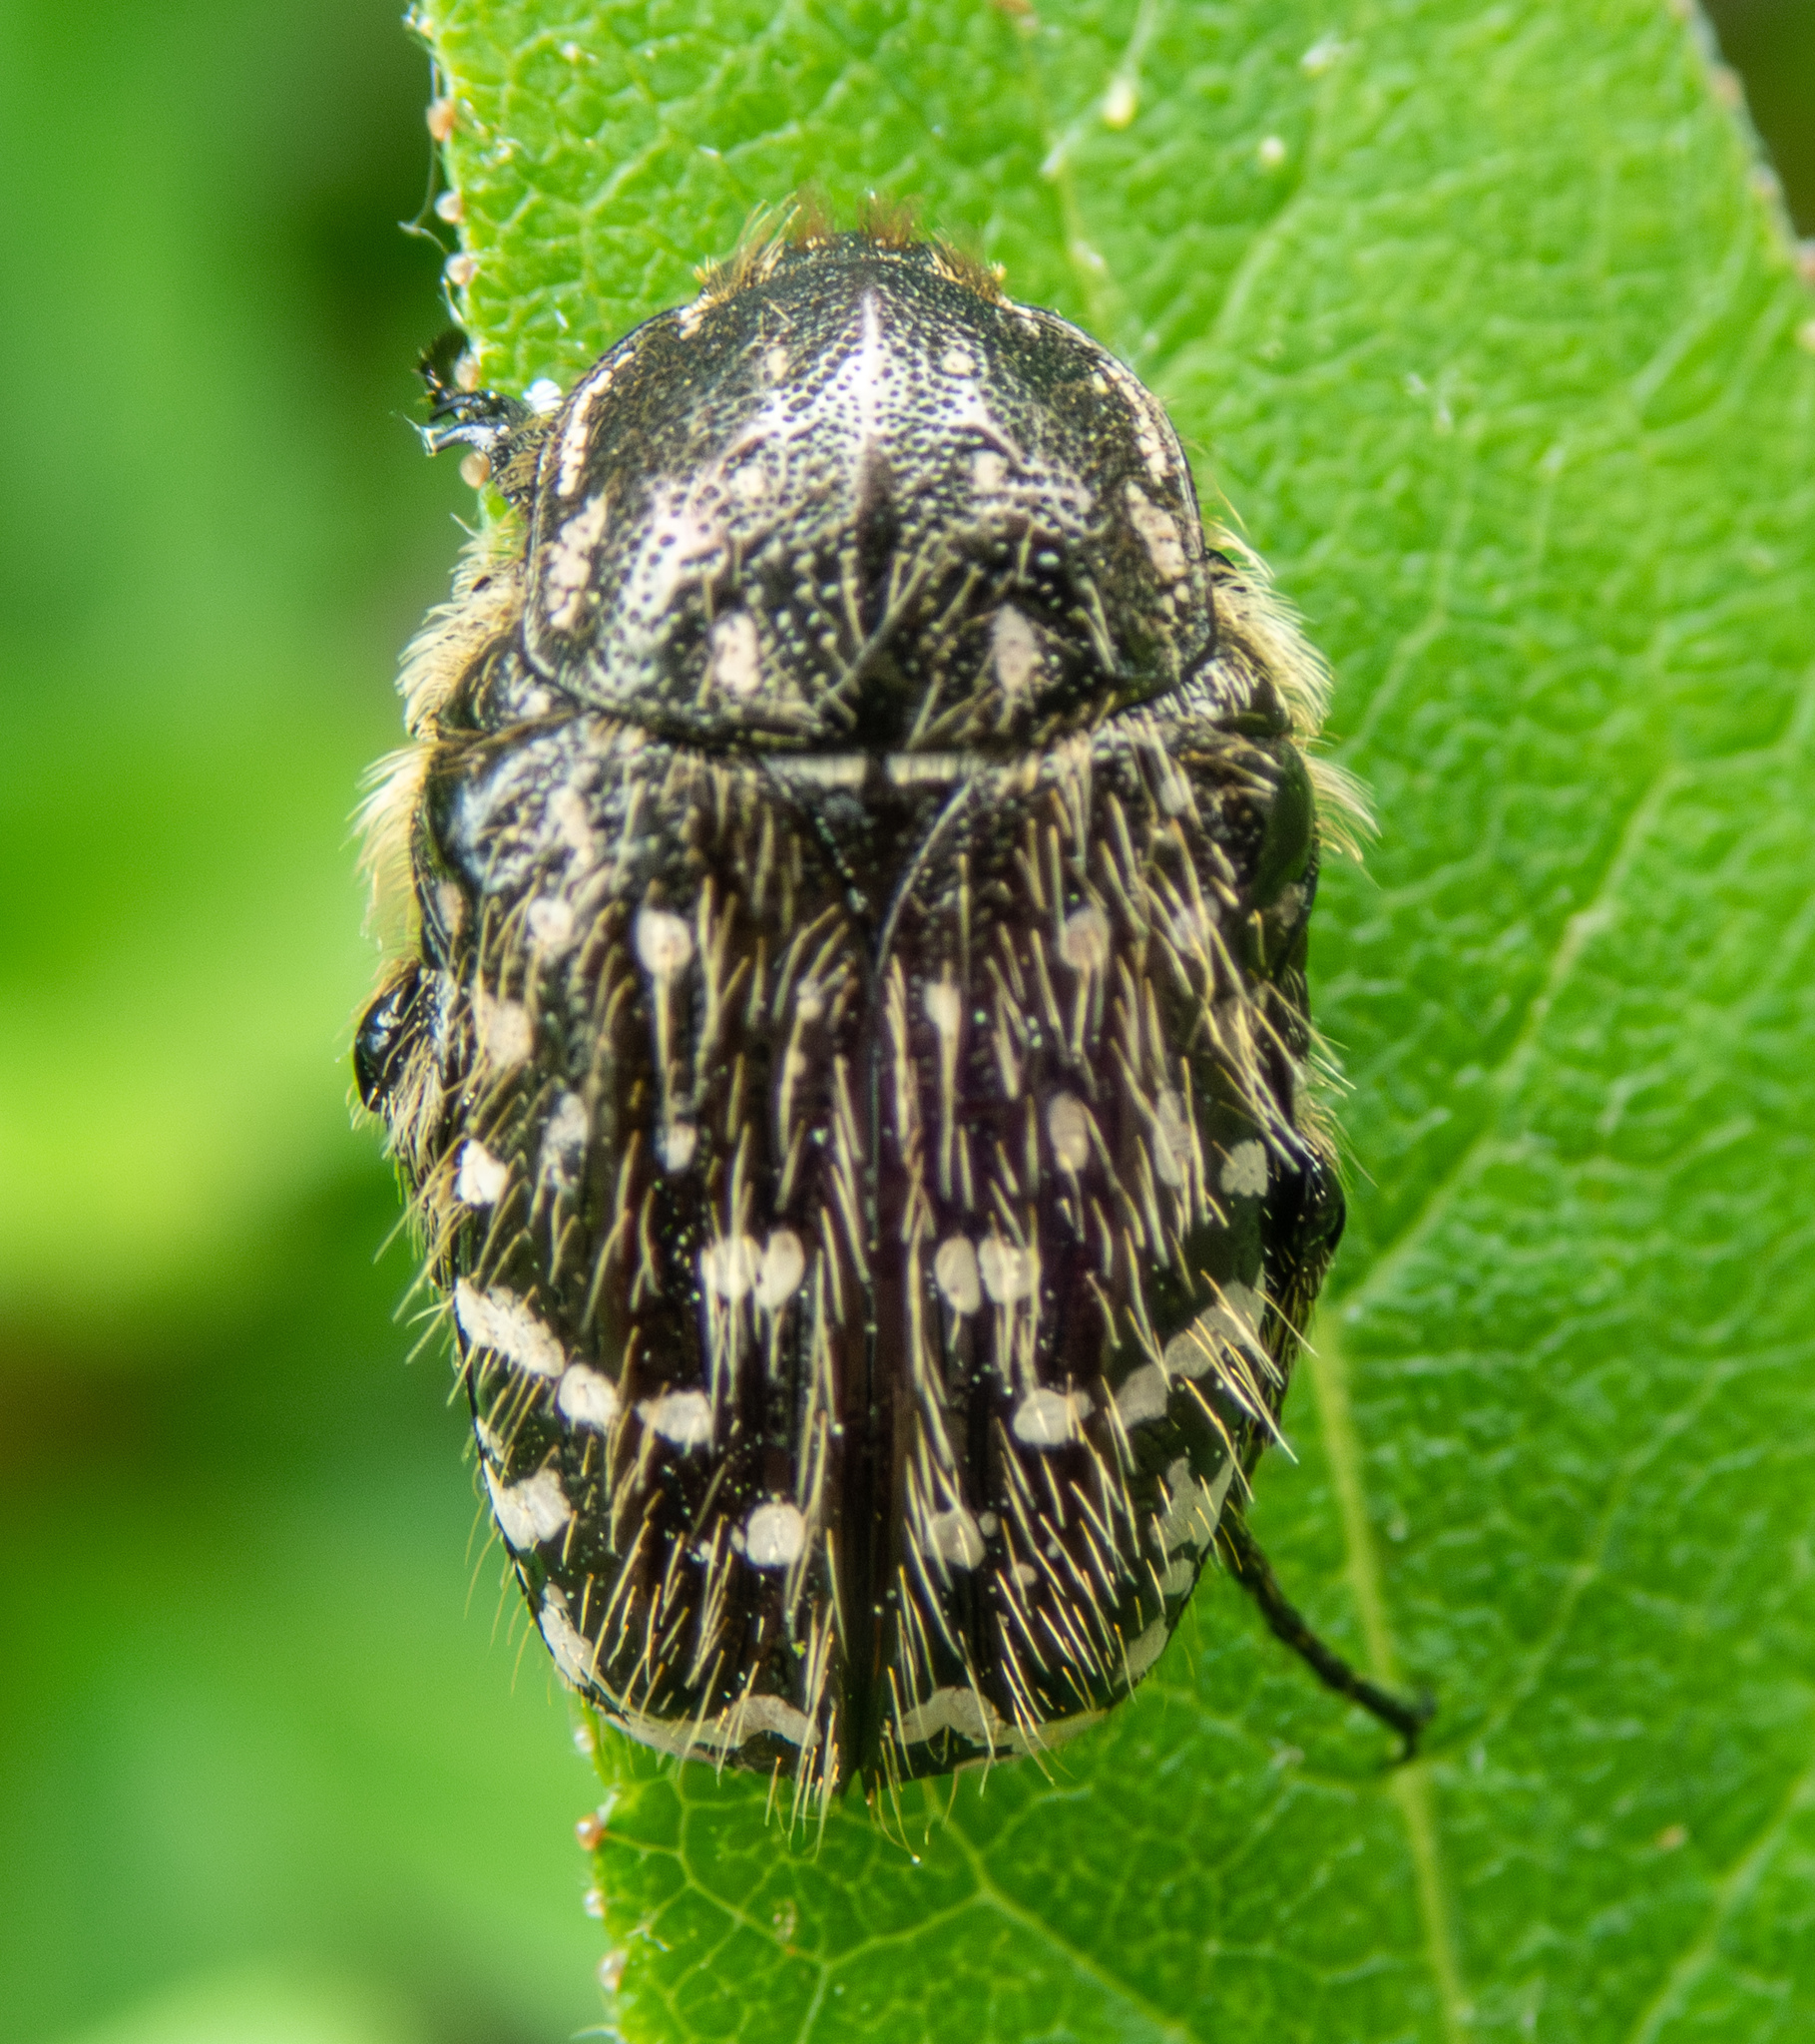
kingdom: Animalia
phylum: Arthropoda
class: Insecta
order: Coleoptera
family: Scarabaeidae
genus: Oxythyrea
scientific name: Oxythyrea funesta
